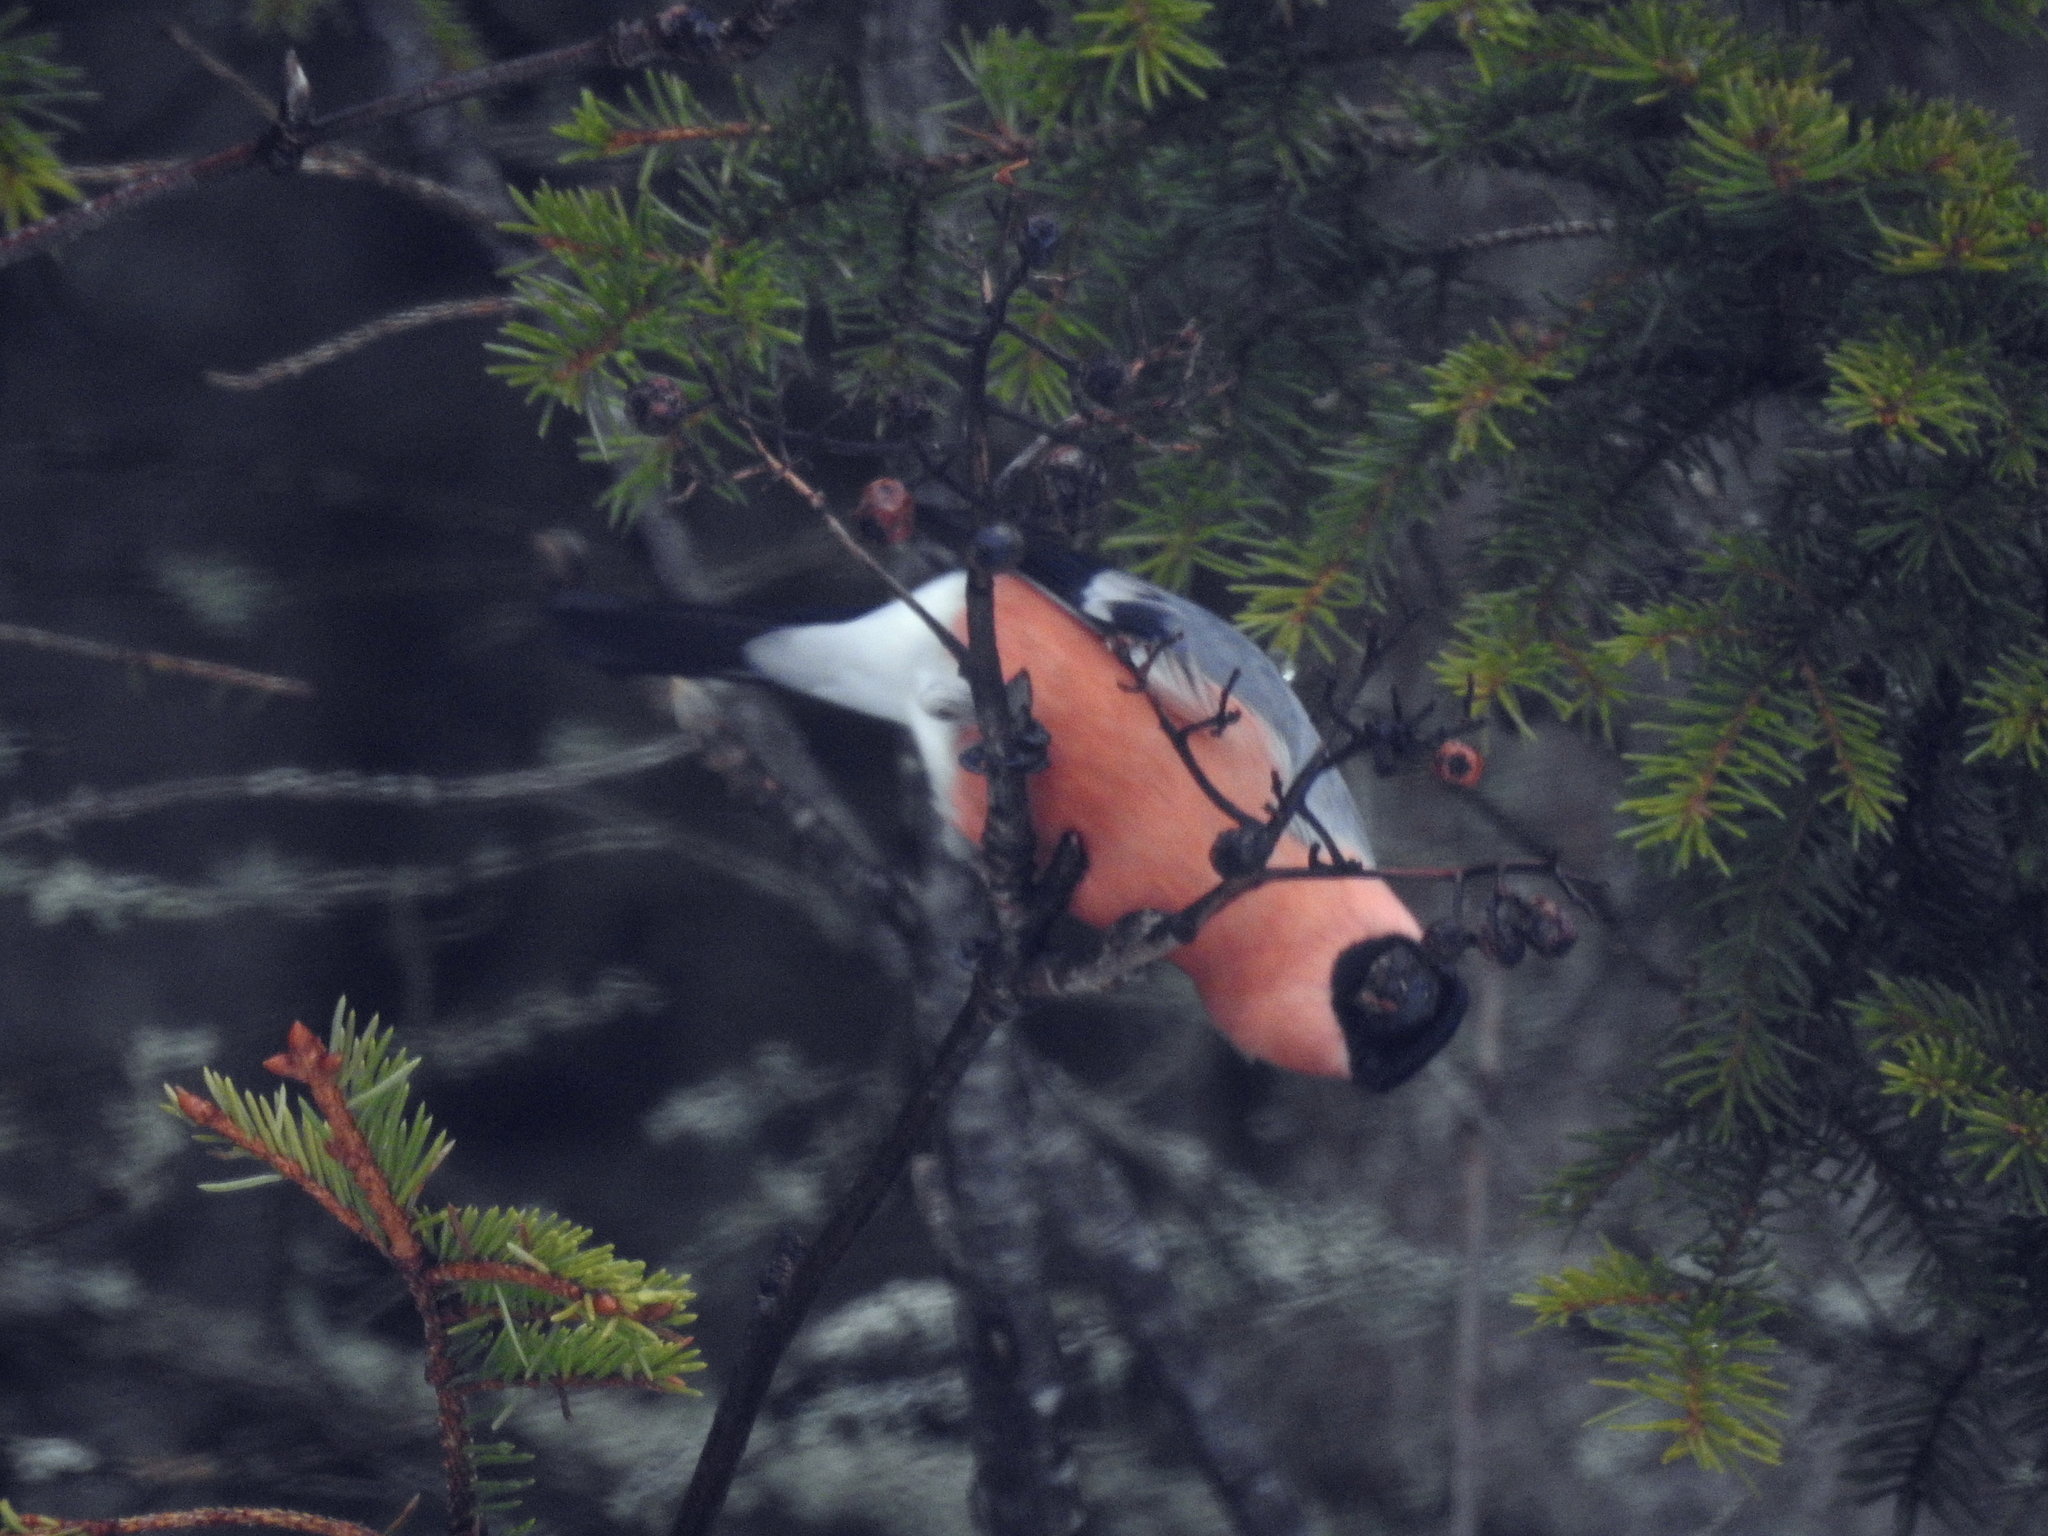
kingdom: Animalia
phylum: Chordata
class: Aves
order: Passeriformes
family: Fringillidae
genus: Pyrrhula
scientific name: Pyrrhula pyrrhula
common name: Eurasian bullfinch
